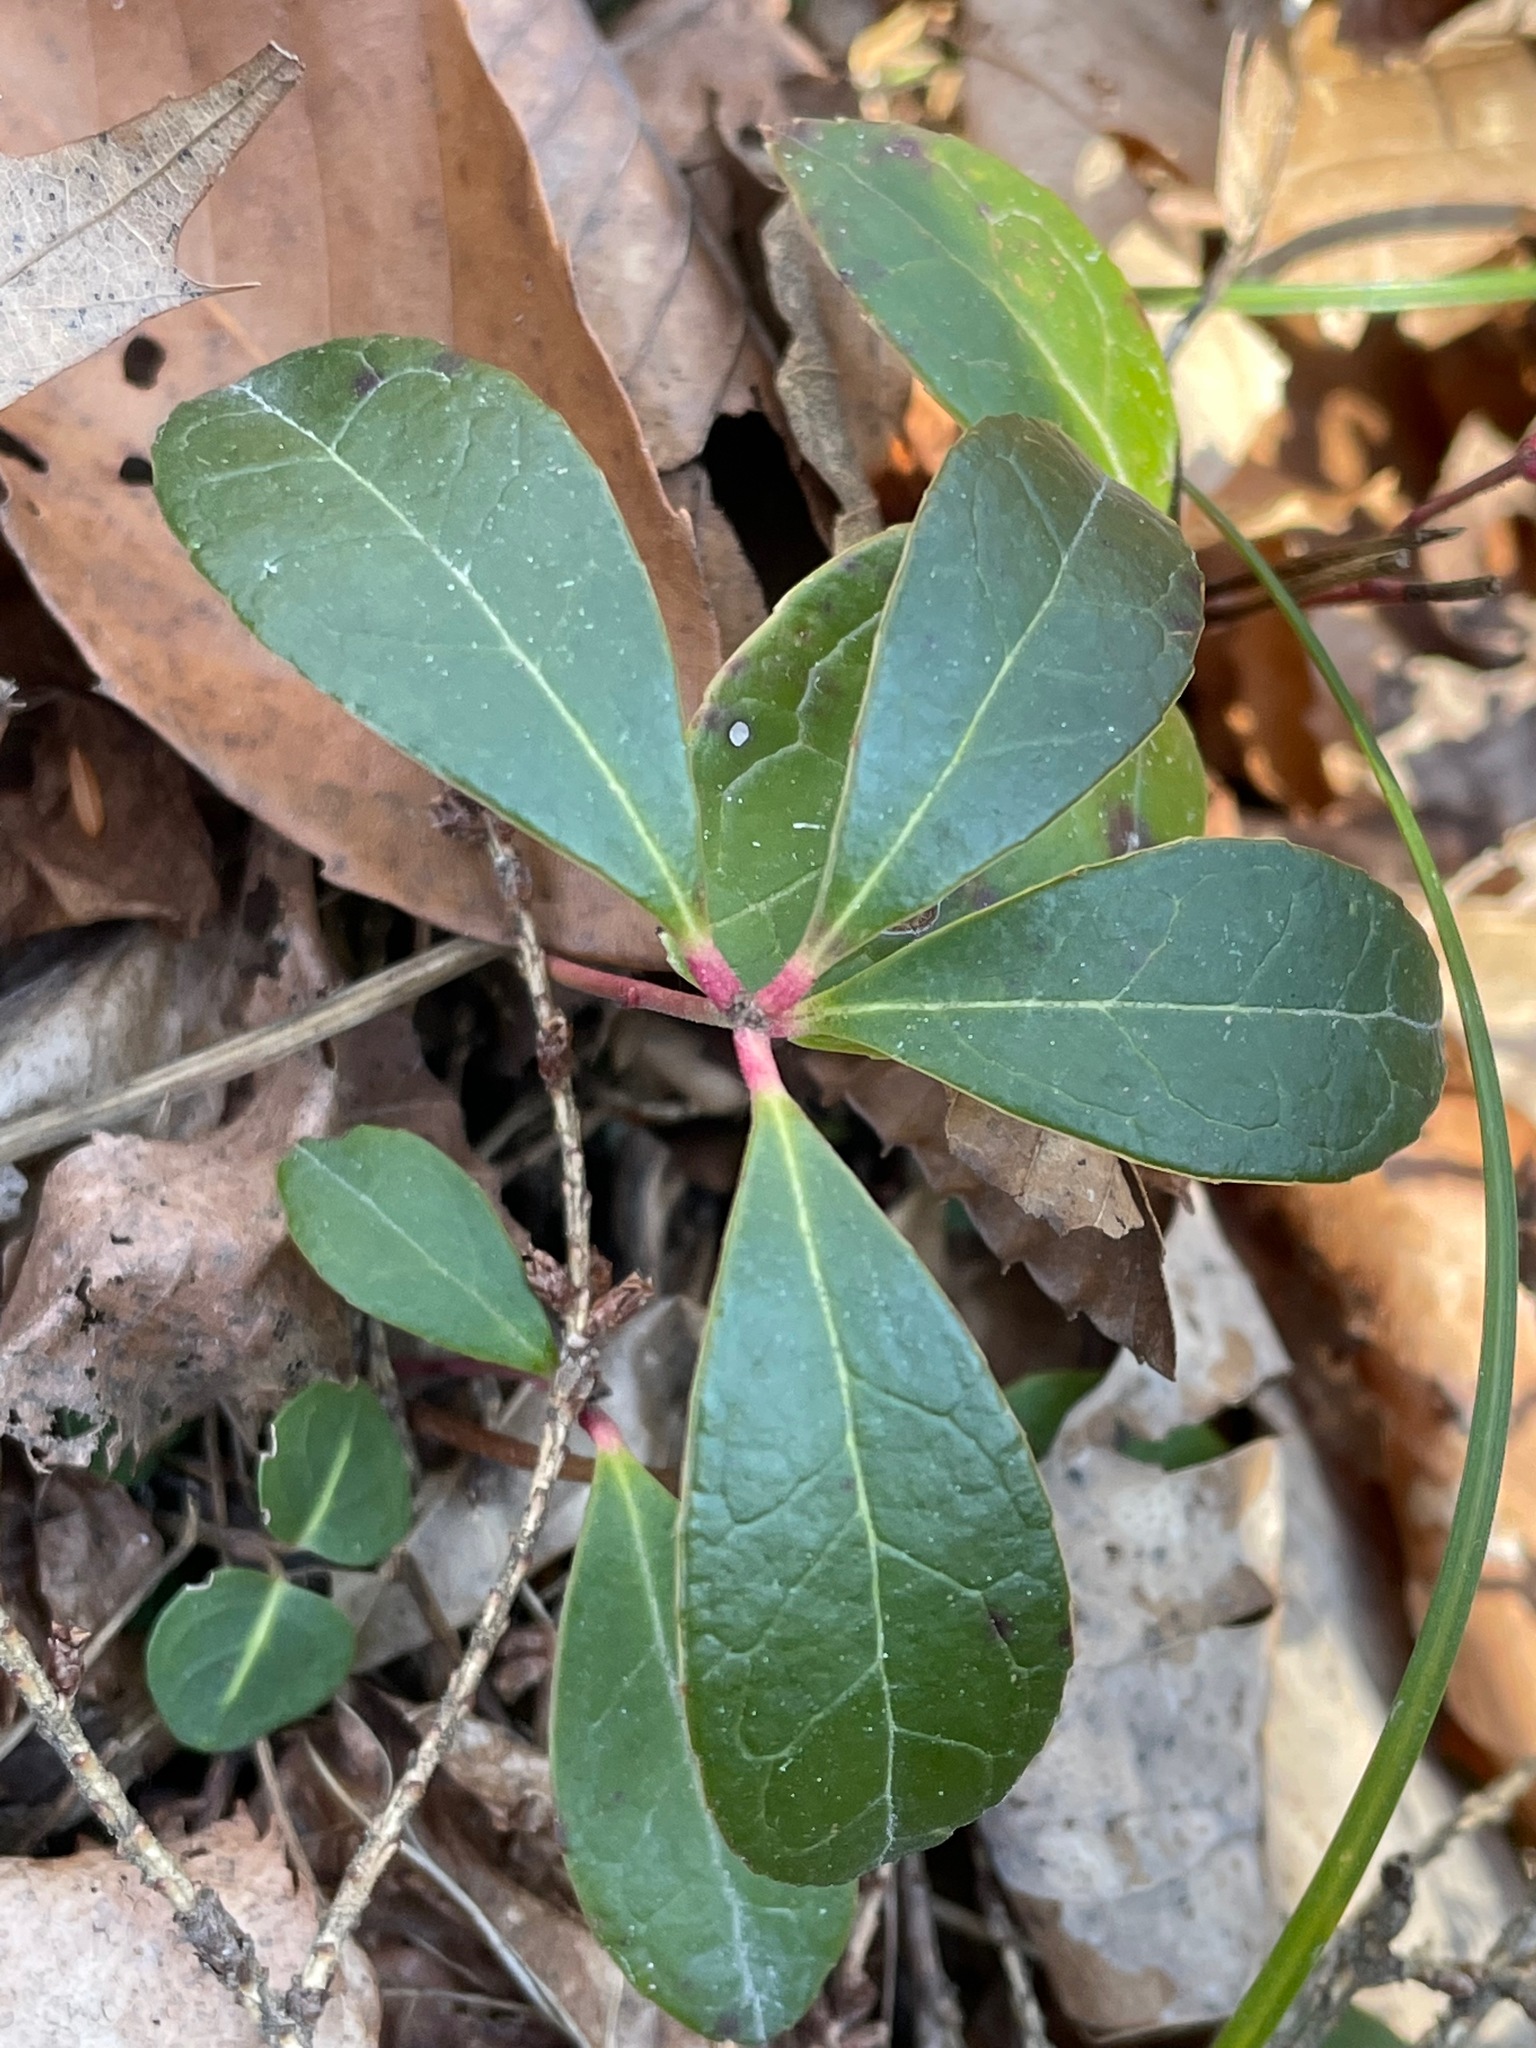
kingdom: Plantae
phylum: Tracheophyta
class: Magnoliopsida
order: Ericales
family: Ericaceae
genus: Gaultheria
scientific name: Gaultheria procumbens
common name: Checkerberry
